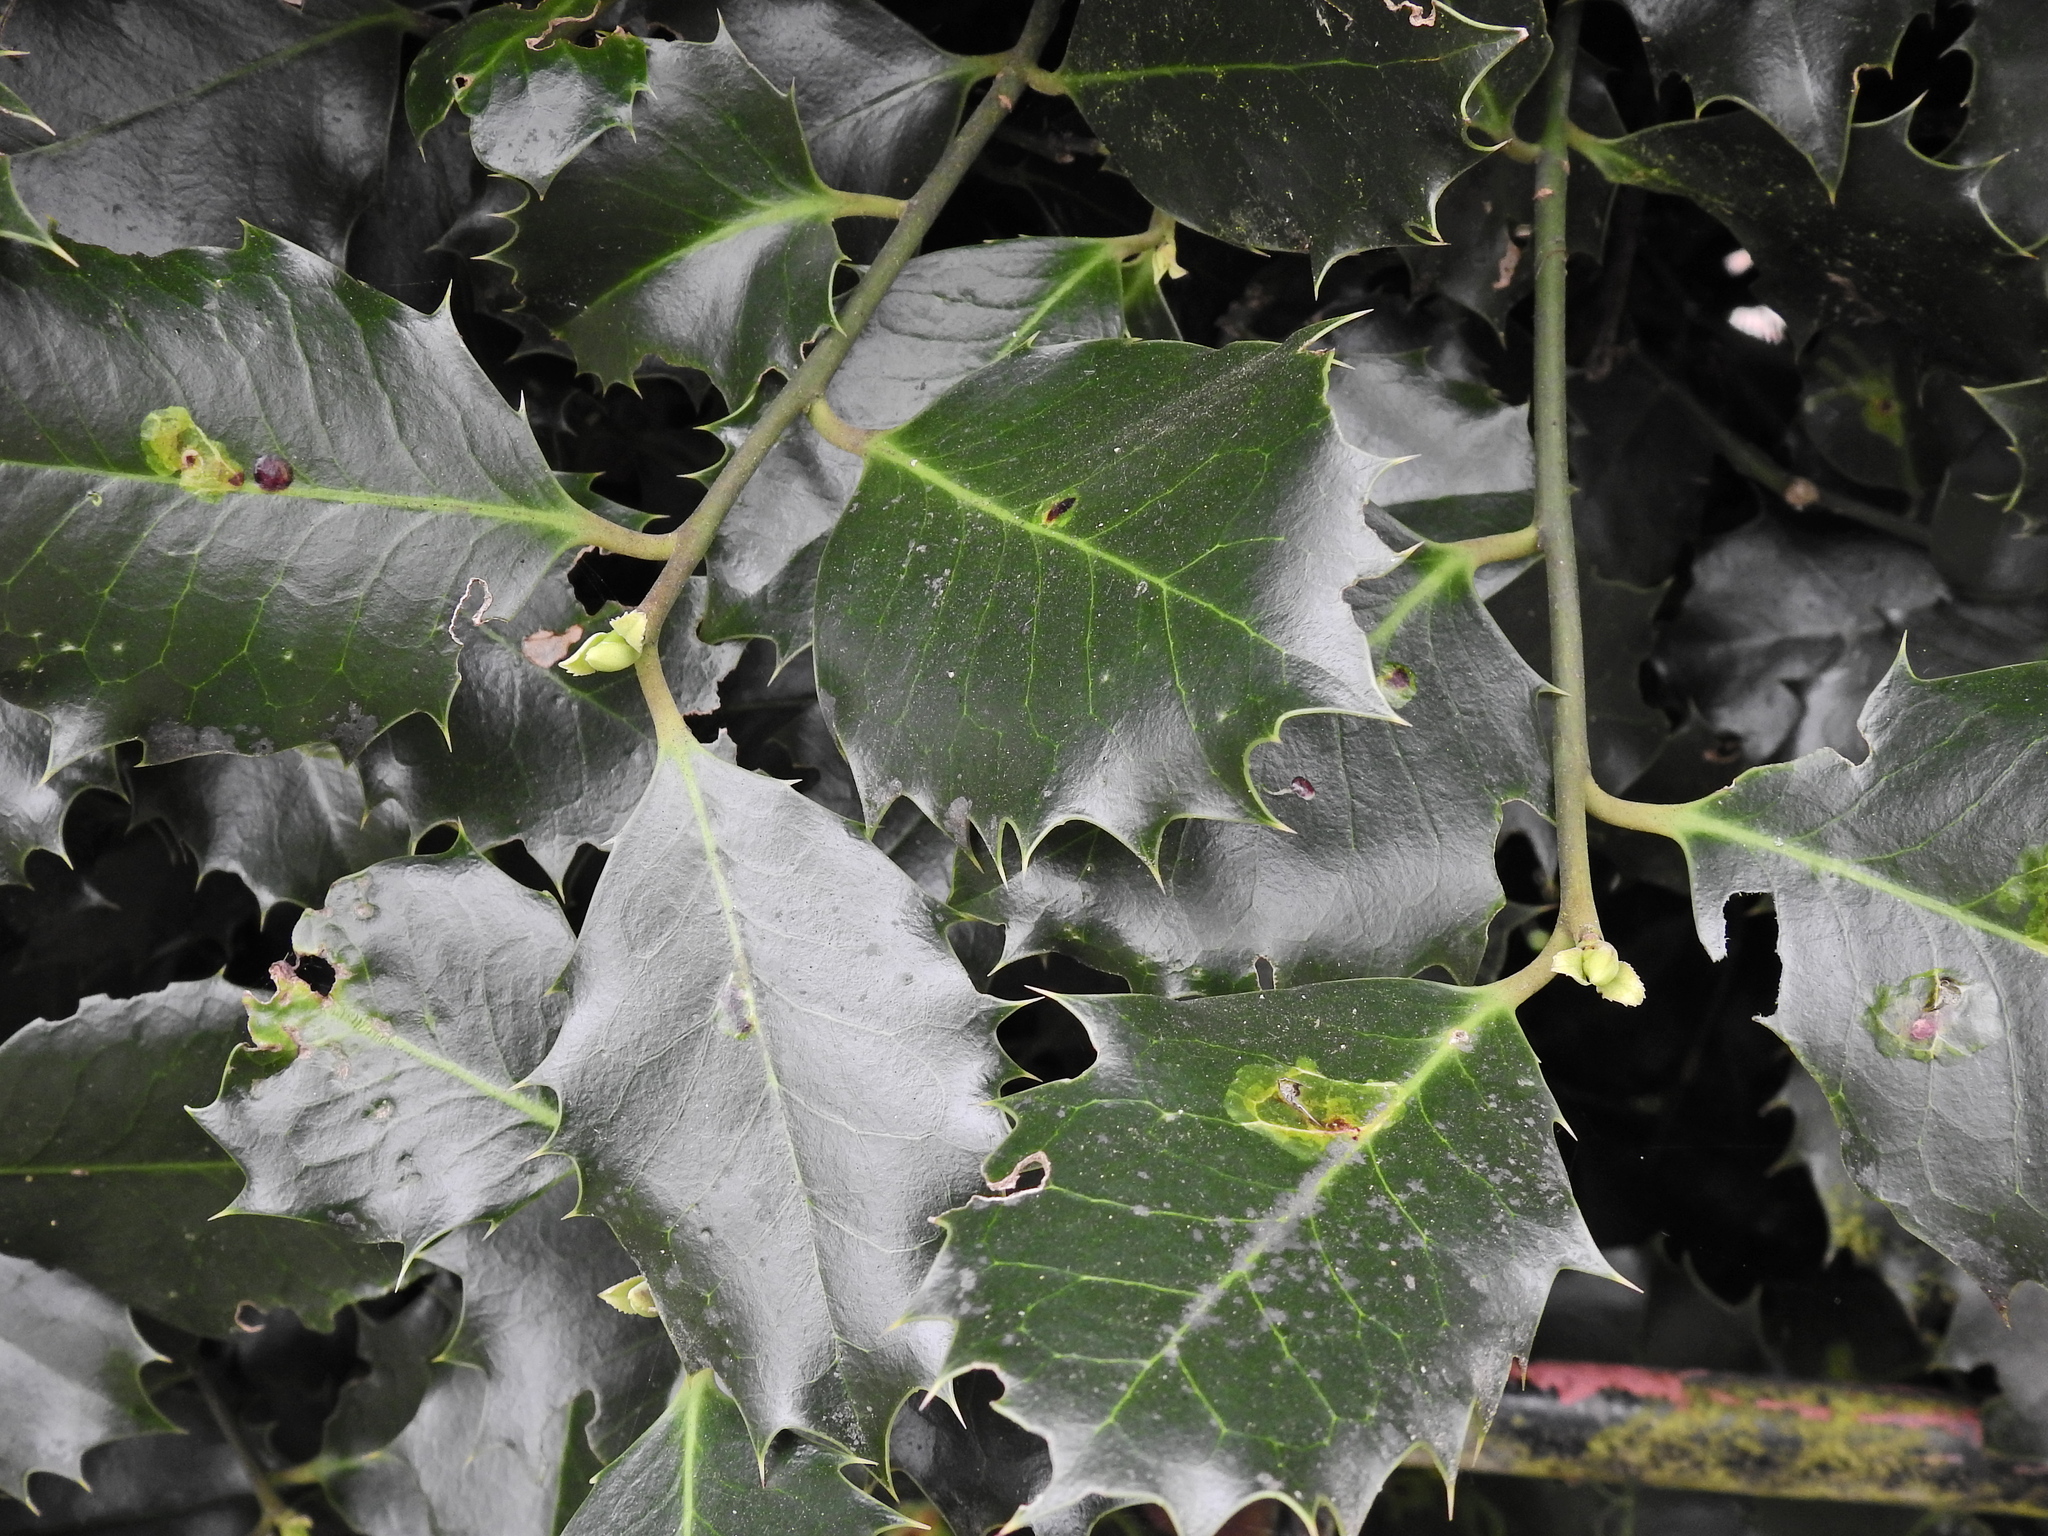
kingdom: Plantae
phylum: Tracheophyta
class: Magnoliopsida
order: Aquifoliales
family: Aquifoliaceae
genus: Ilex
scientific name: Ilex aquifolium
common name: English holly
